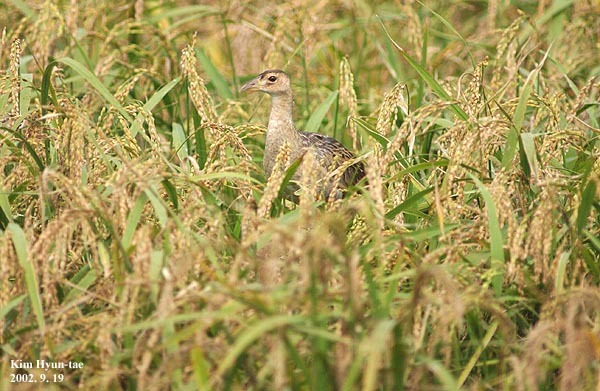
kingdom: Animalia
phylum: Chordata
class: Aves
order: Gruiformes
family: Rallidae
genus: Gallicrex
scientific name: Gallicrex cinerea
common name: Watercock
